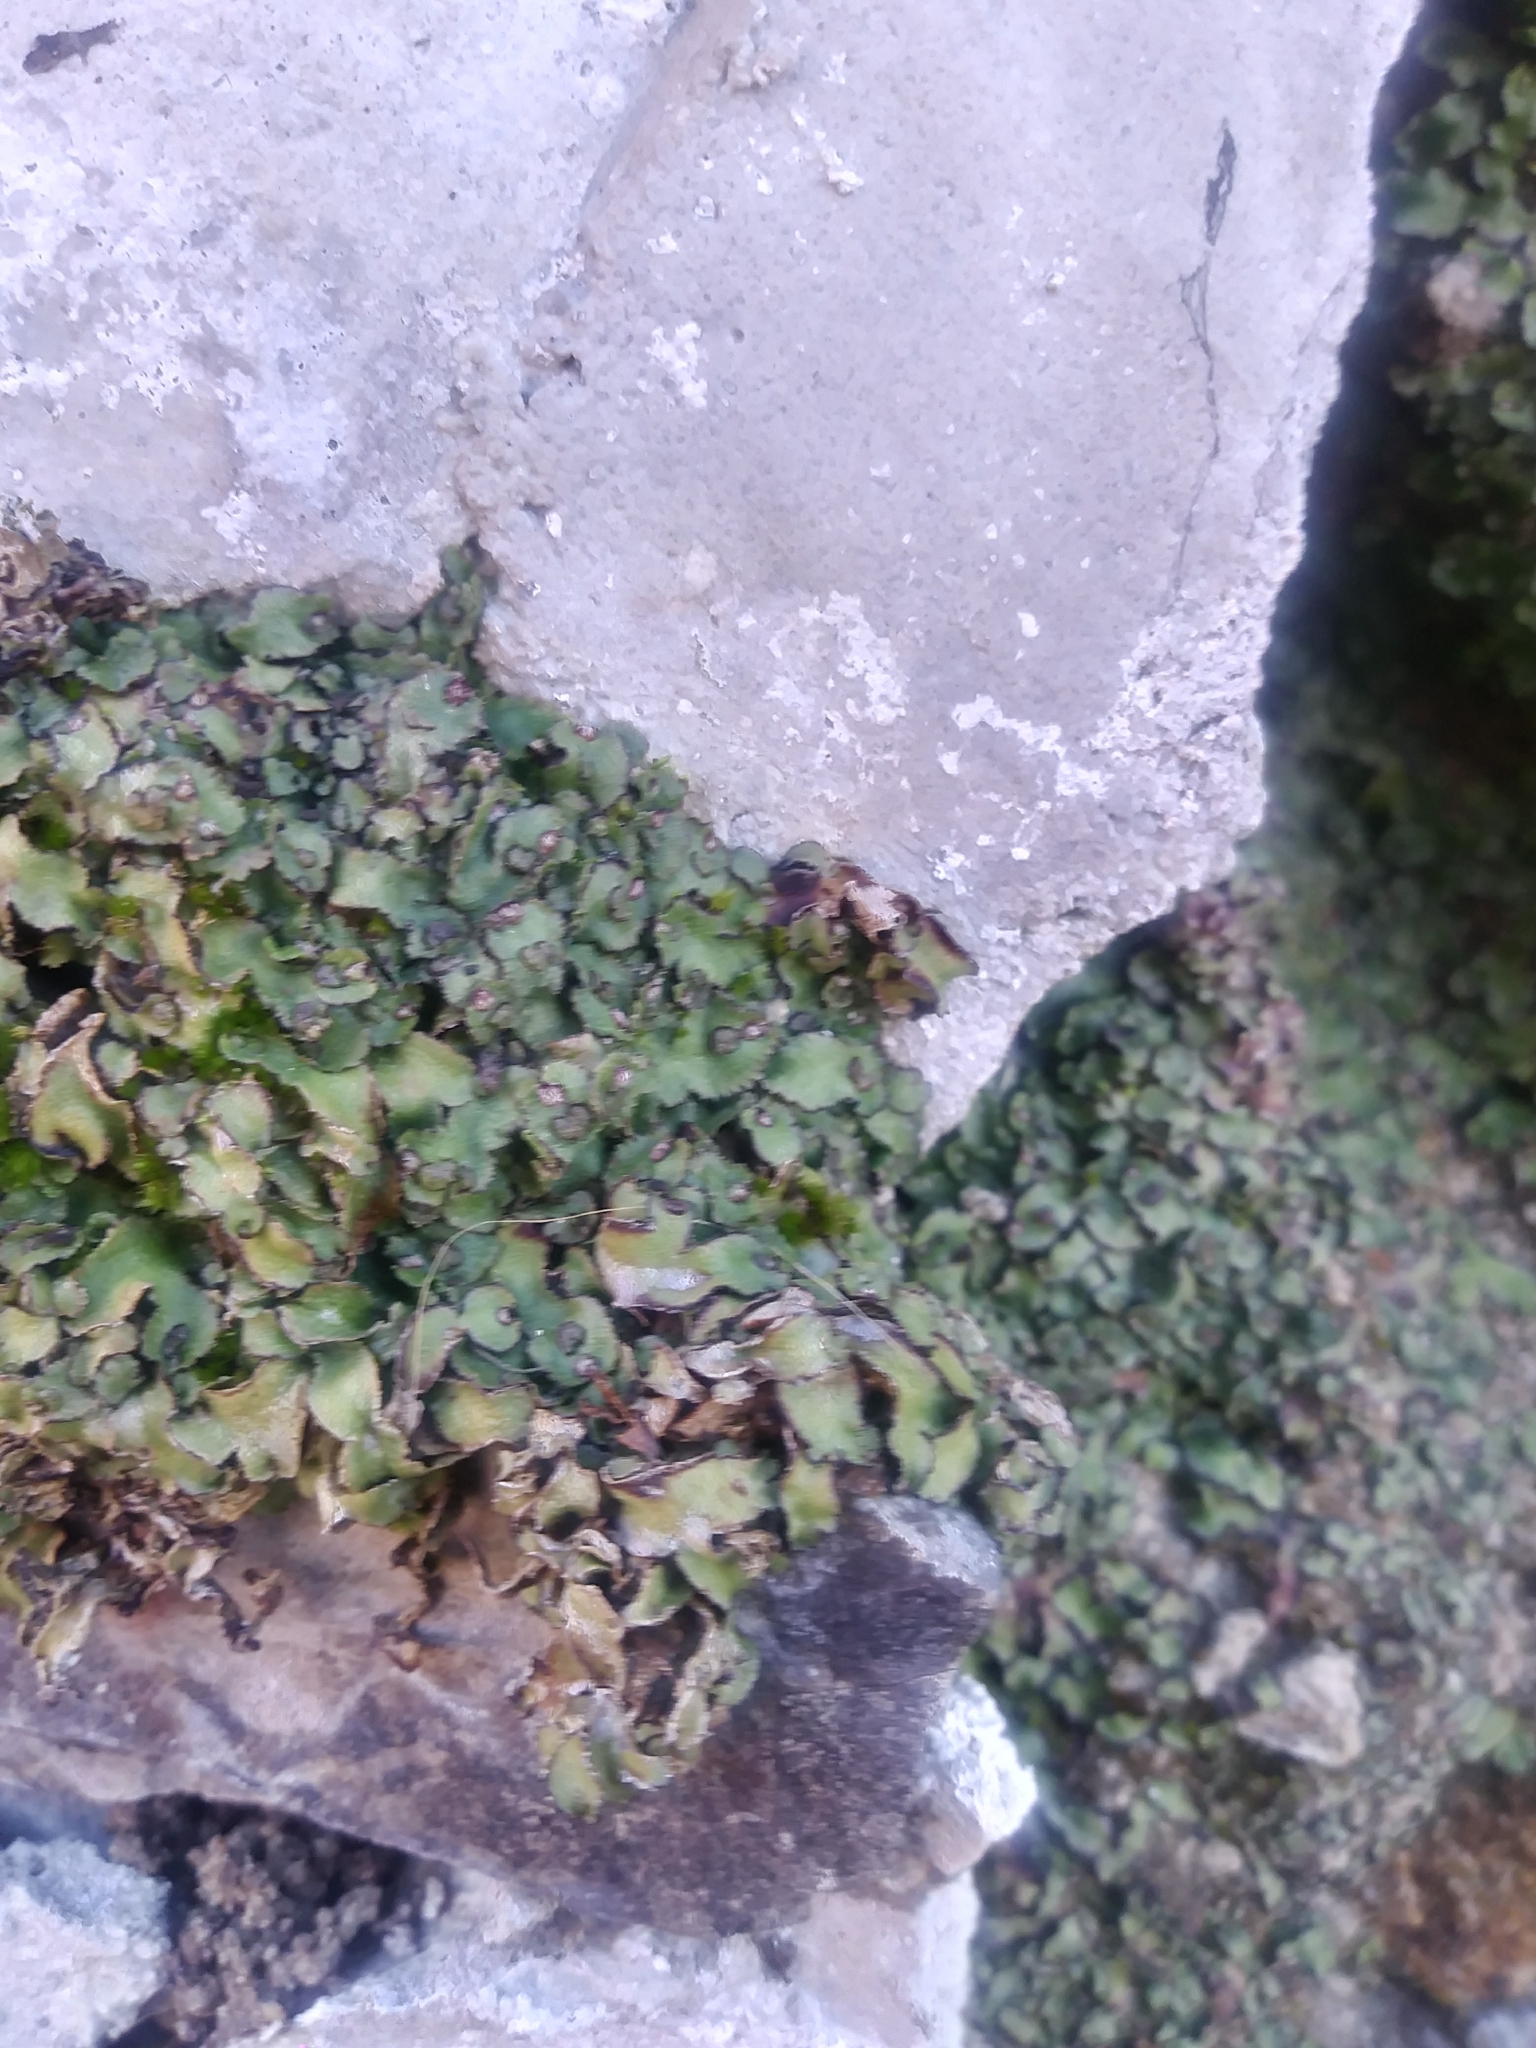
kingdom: Plantae
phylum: Marchantiophyta
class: Marchantiopsida
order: Marchantiales
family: Aytoniaceae
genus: Reboulia
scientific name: Reboulia hemisphaerica
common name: Purple-margined liverwort
